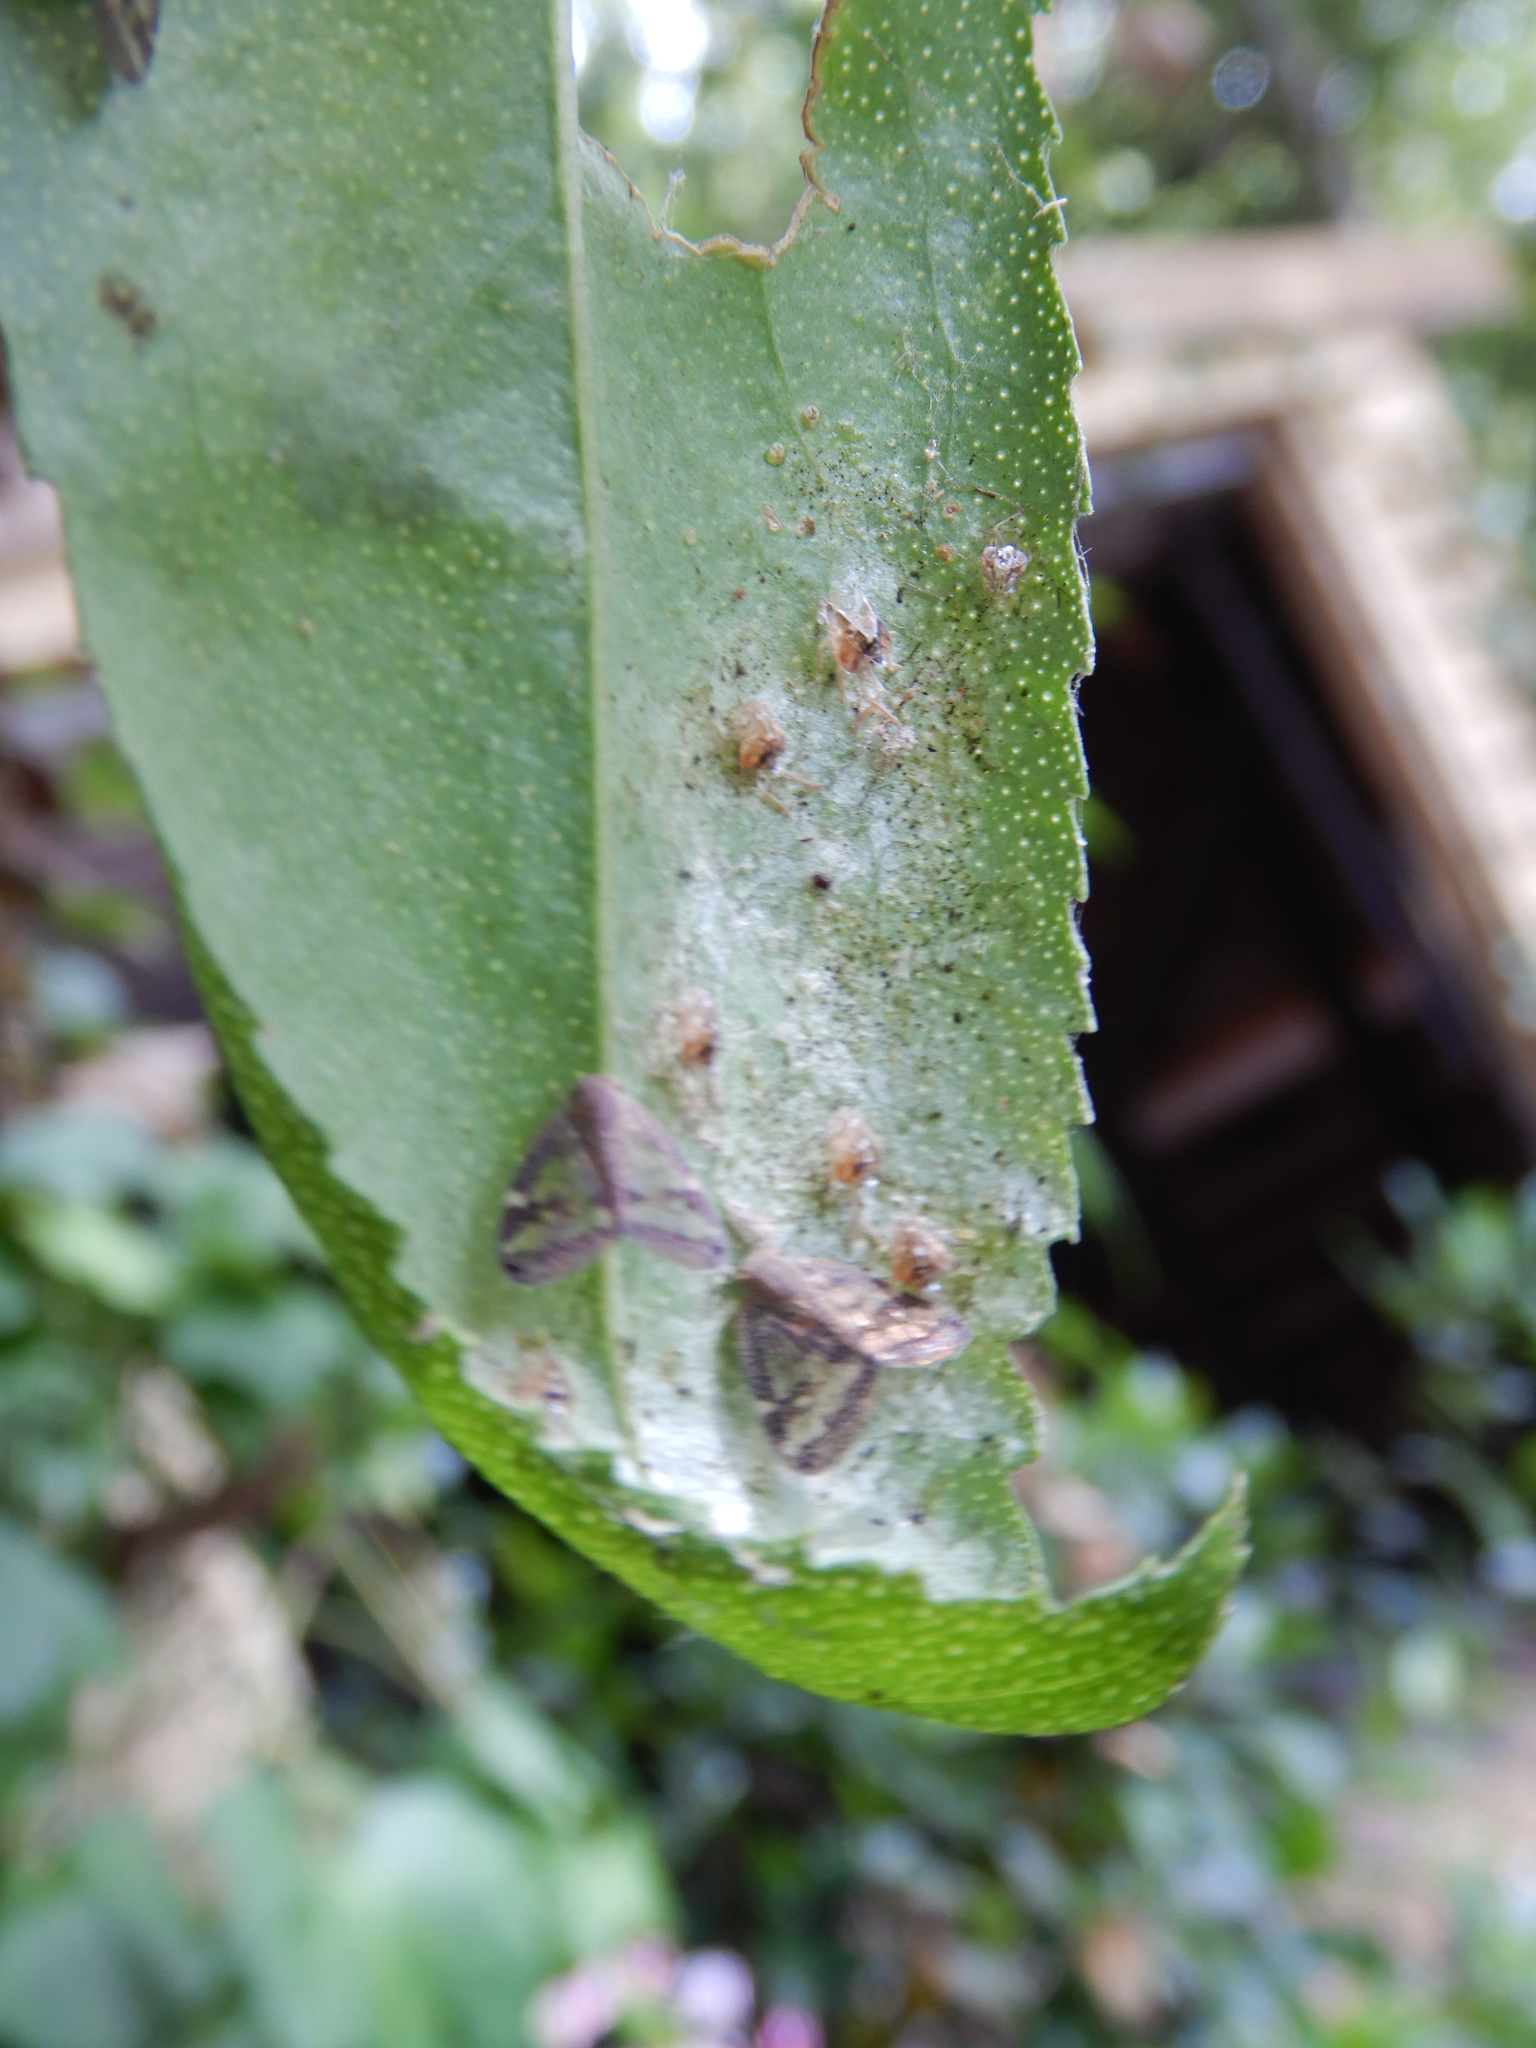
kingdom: Animalia
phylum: Arthropoda
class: Insecta
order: Hemiptera
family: Ricaniidae
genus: Scolypopa
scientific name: Scolypopa australis
